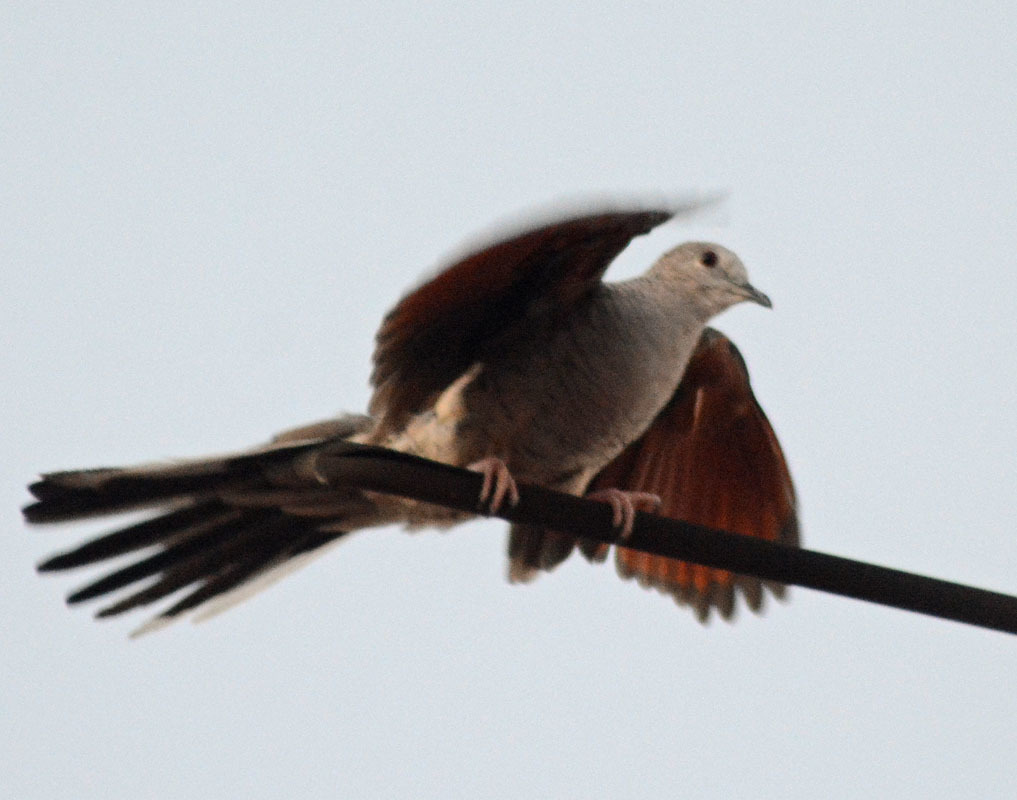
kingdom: Animalia
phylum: Chordata
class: Aves
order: Columbiformes
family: Columbidae
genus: Columbina
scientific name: Columbina inca
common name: Inca dove
